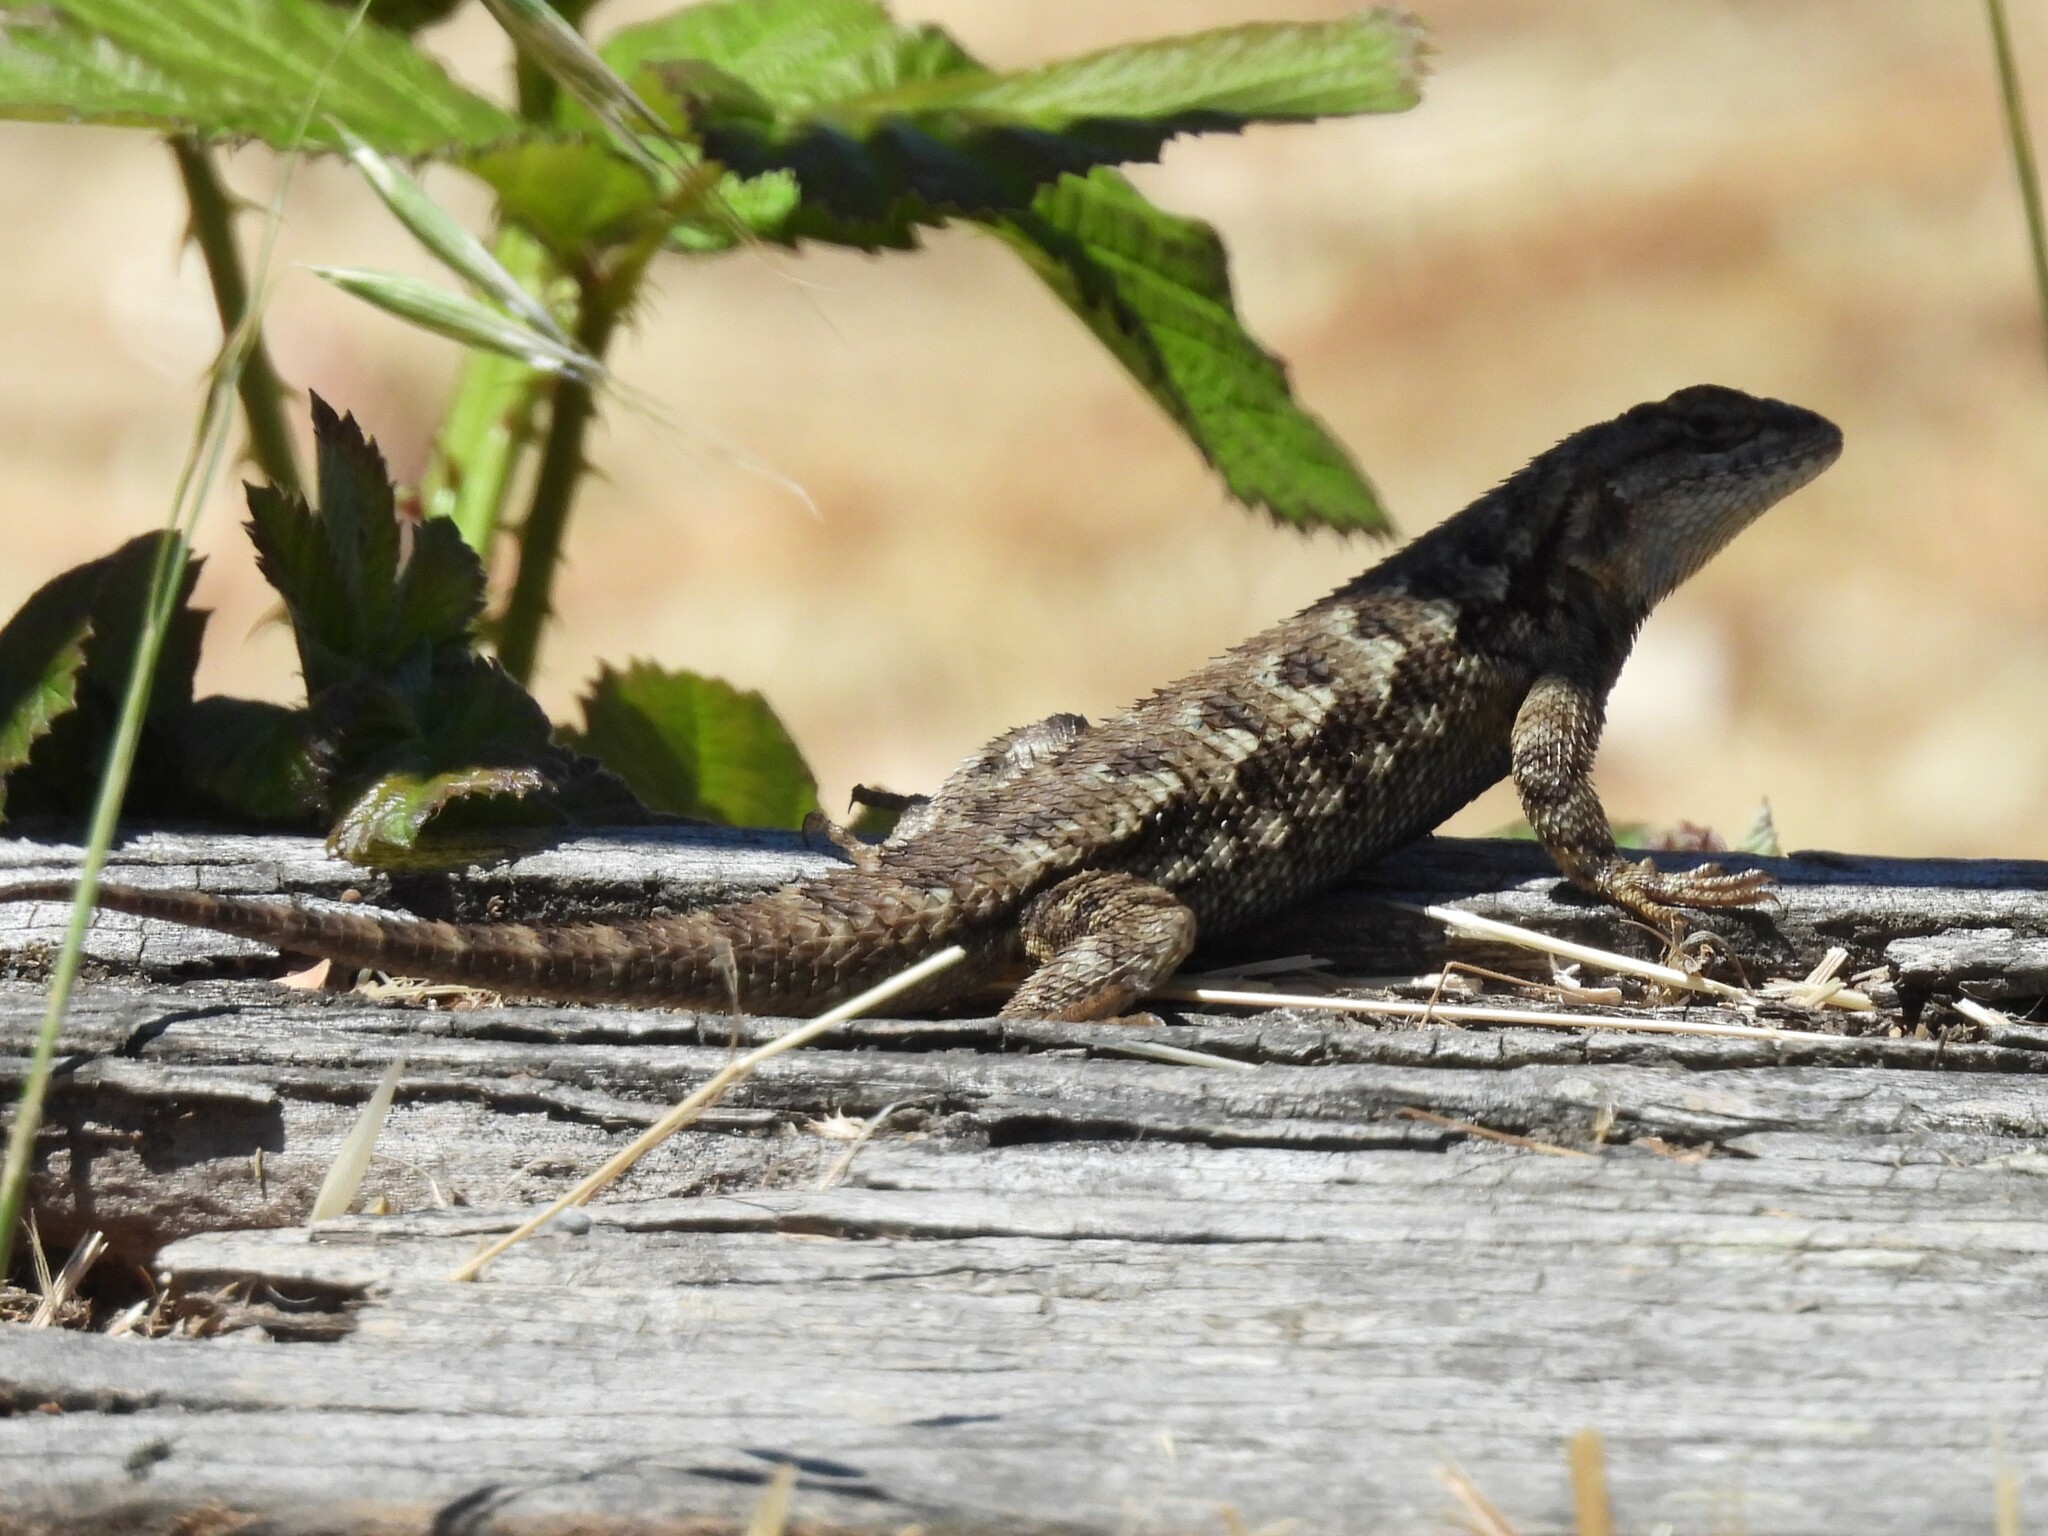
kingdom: Animalia
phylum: Chordata
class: Squamata
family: Phrynosomatidae
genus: Sceloporus
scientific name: Sceloporus occidentalis
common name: Western fence lizard
